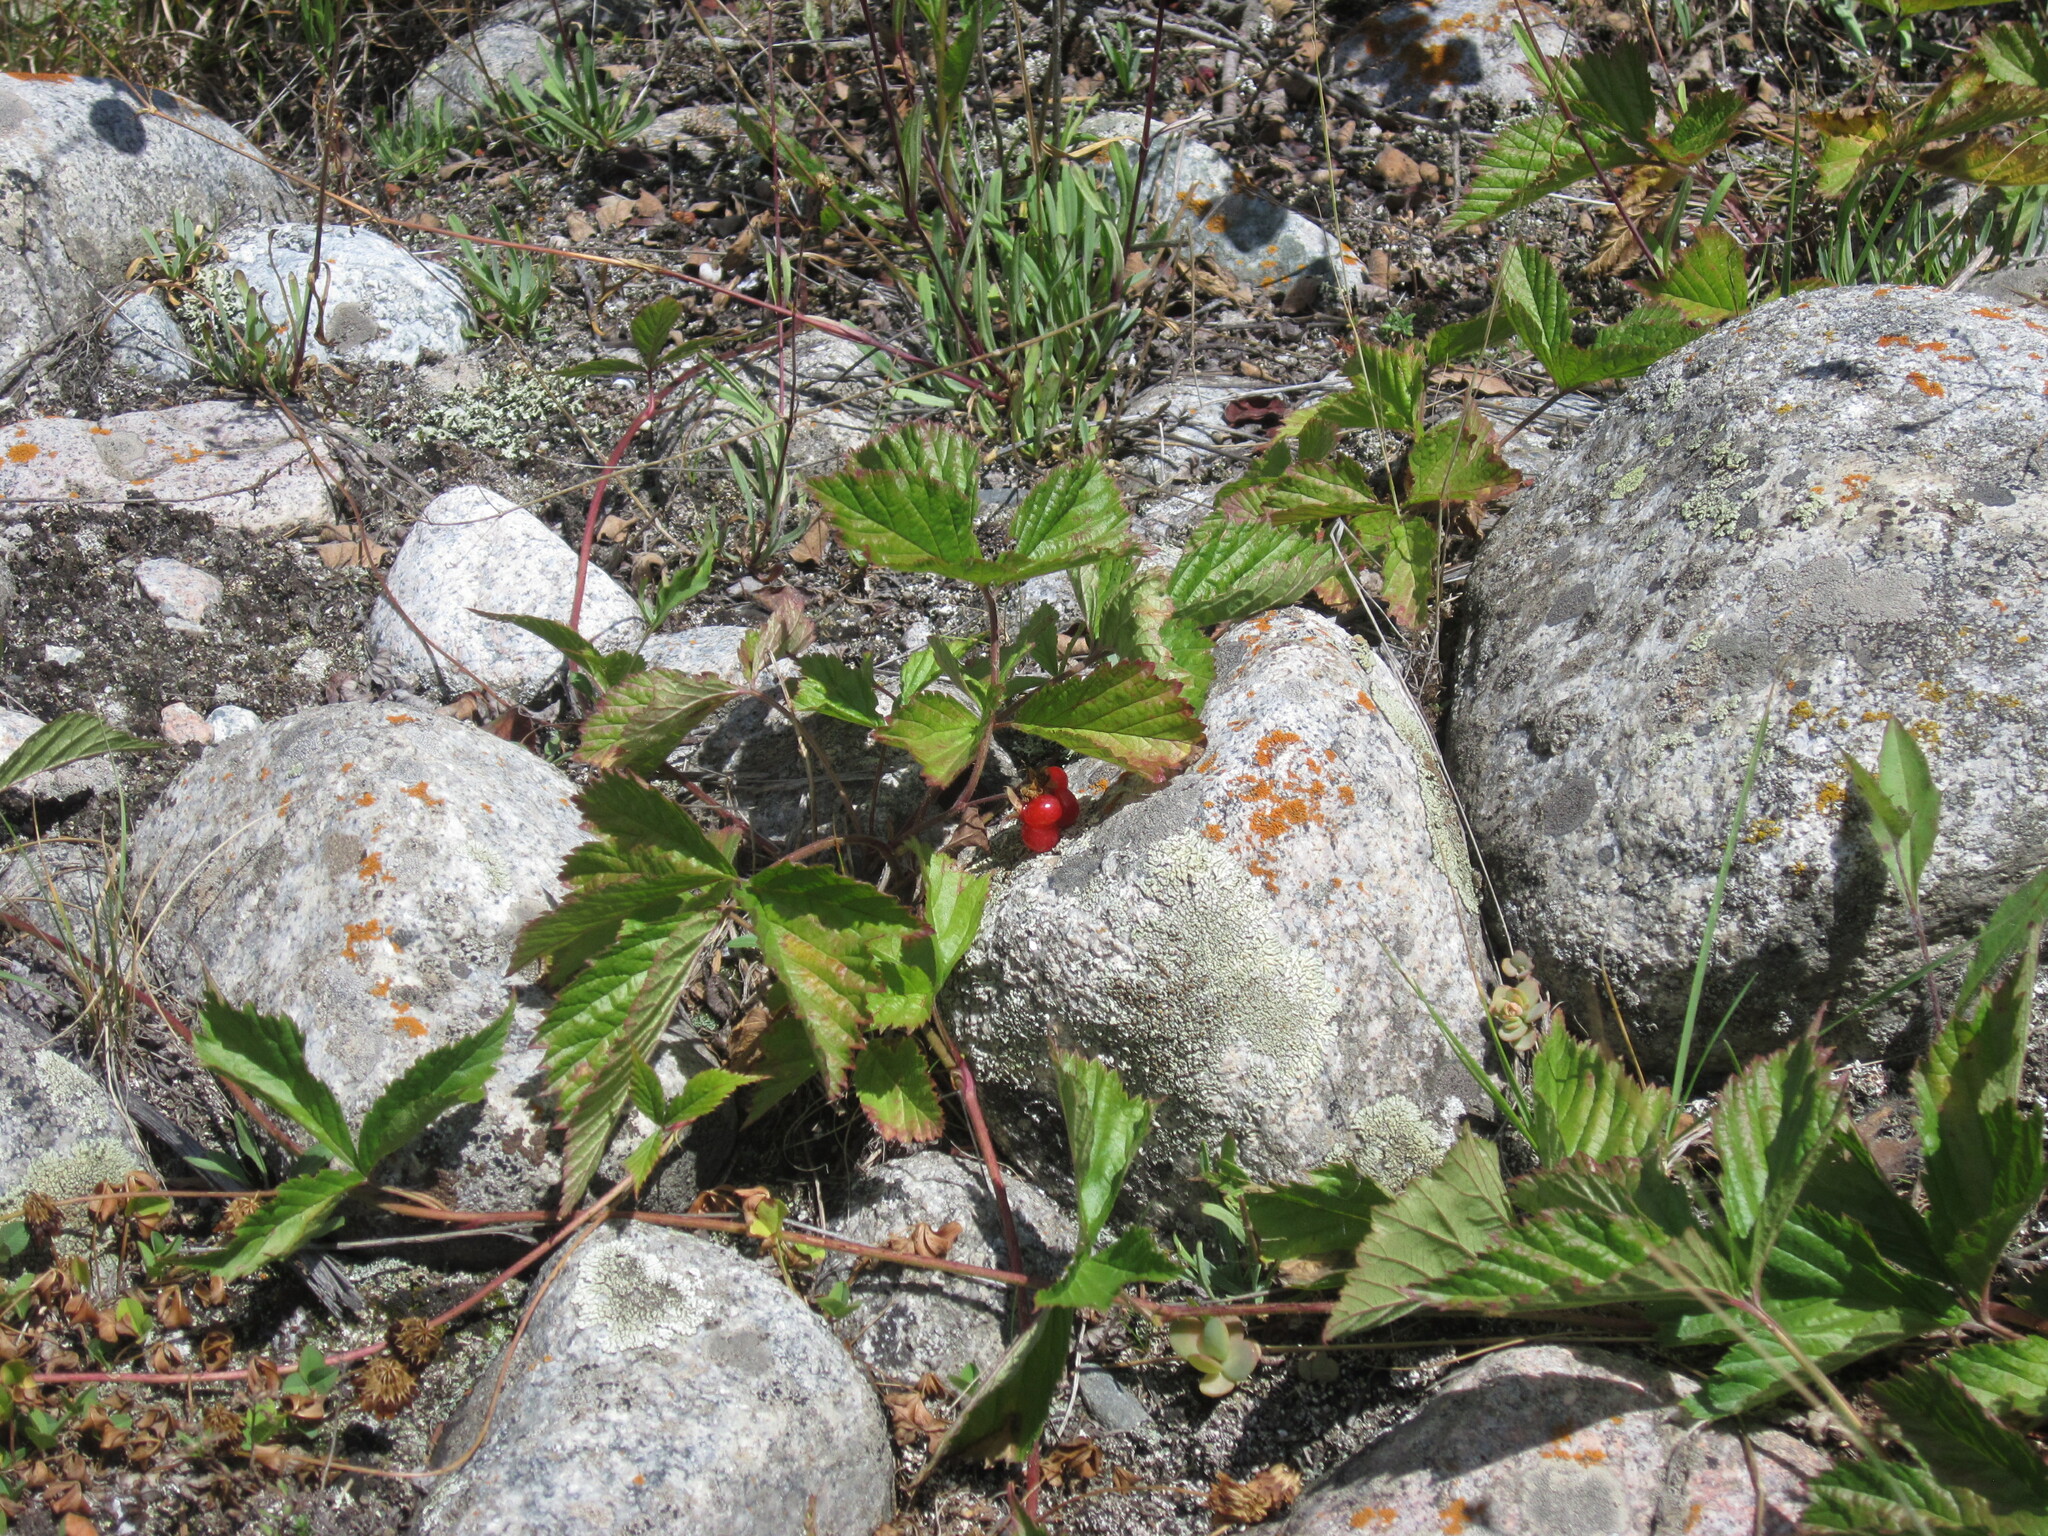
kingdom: Plantae
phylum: Tracheophyta
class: Magnoliopsida
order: Rosales
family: Rosaceae
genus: Rubus
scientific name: Rubus saxatilis
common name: Stone bramble
